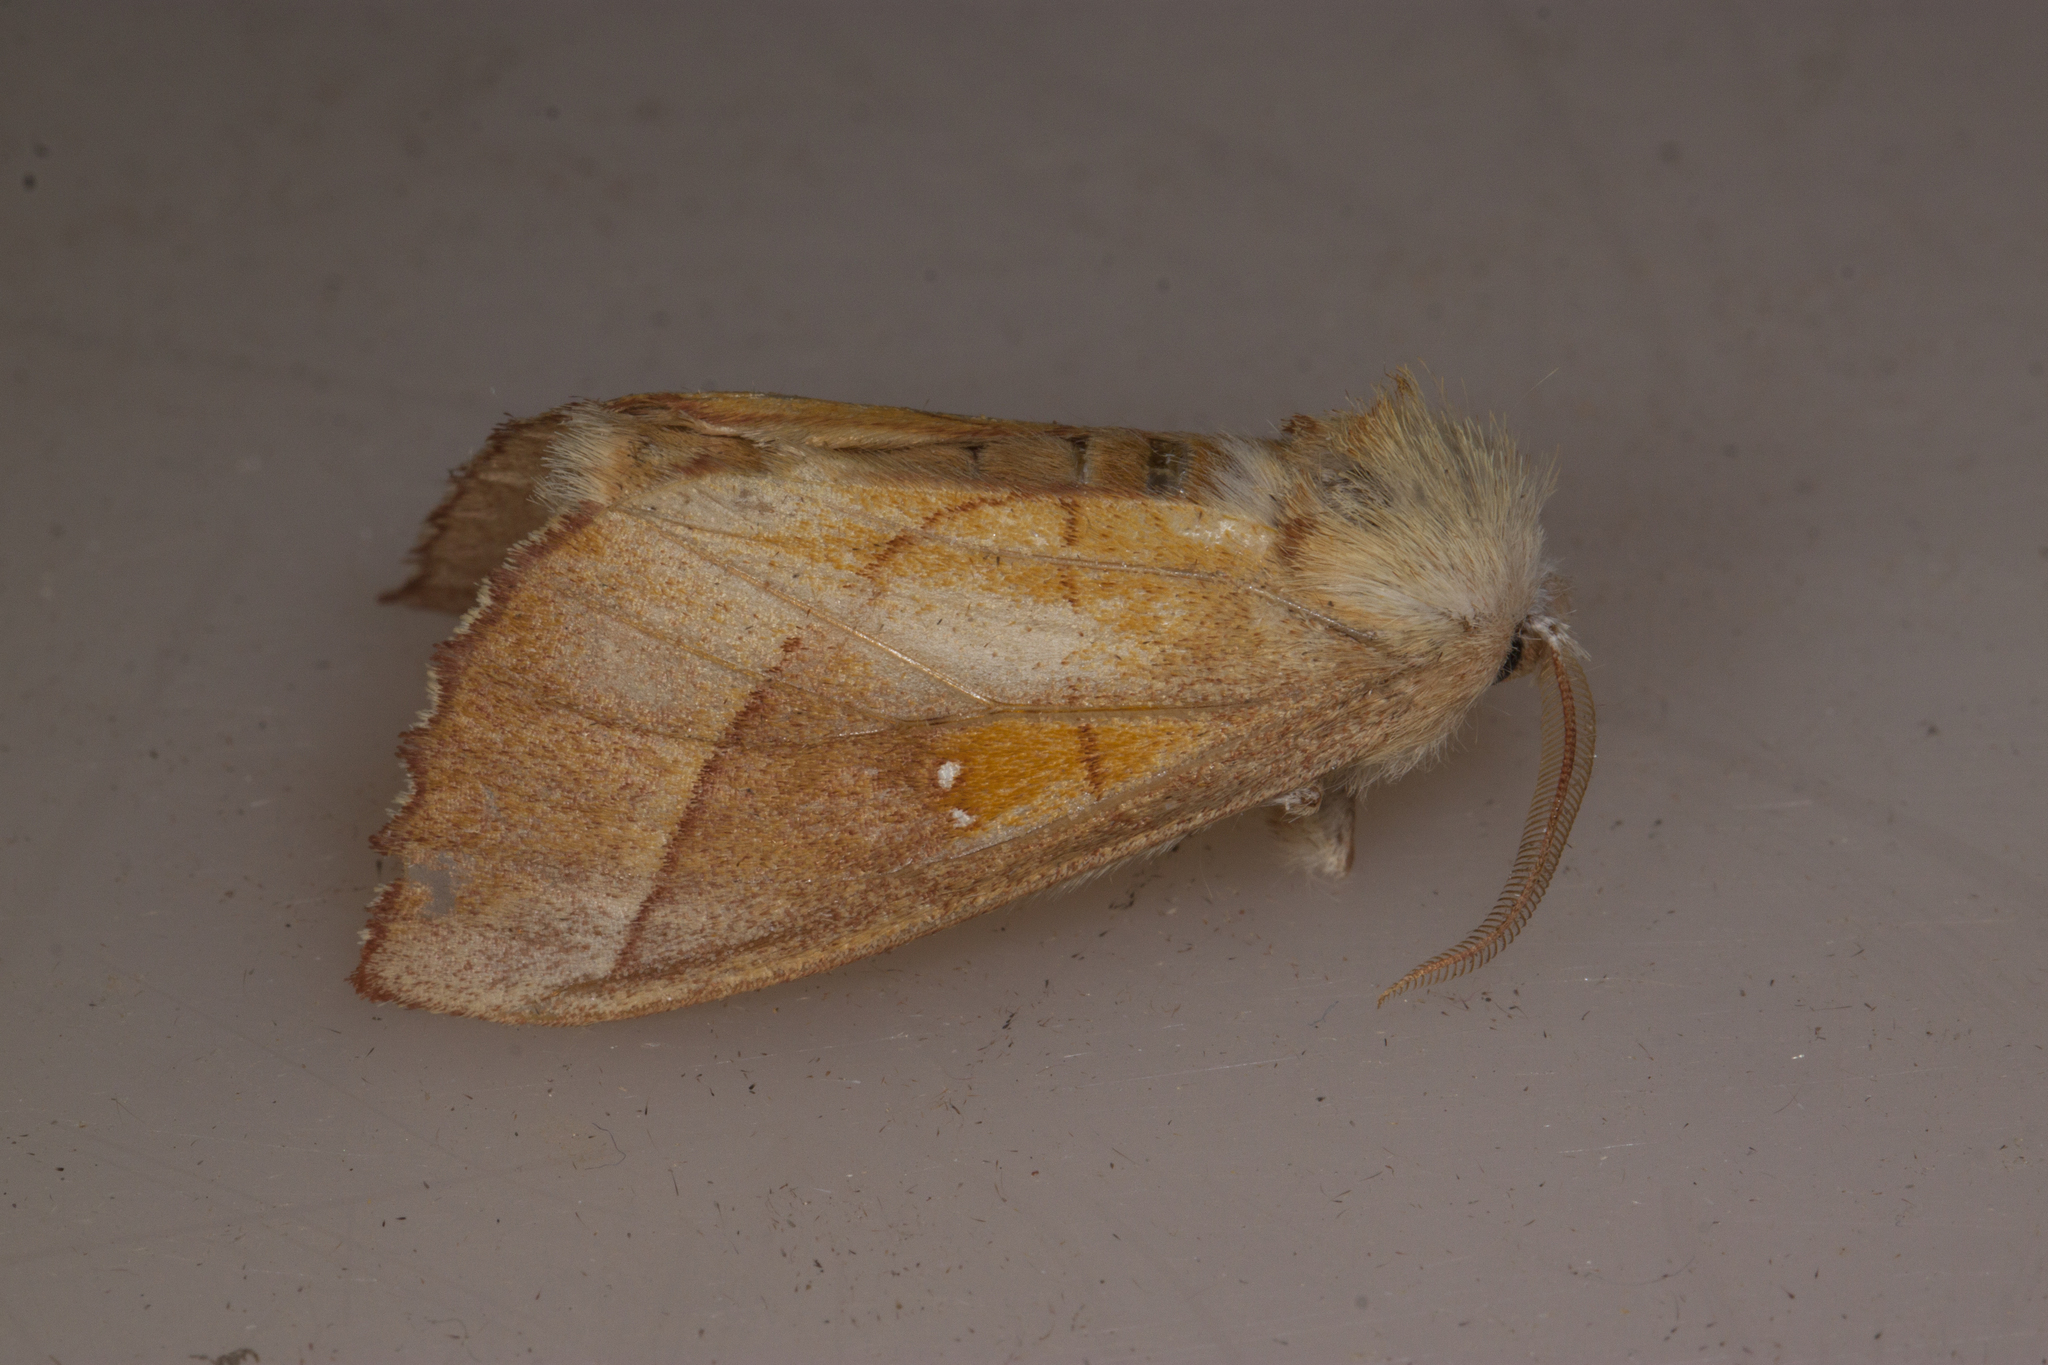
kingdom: Animalia
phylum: Arthropoda
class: Insecta
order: Lepidoptera
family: Notodontidae
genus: Nadata
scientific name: Nadata gibbosa
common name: White-dotted prominent
